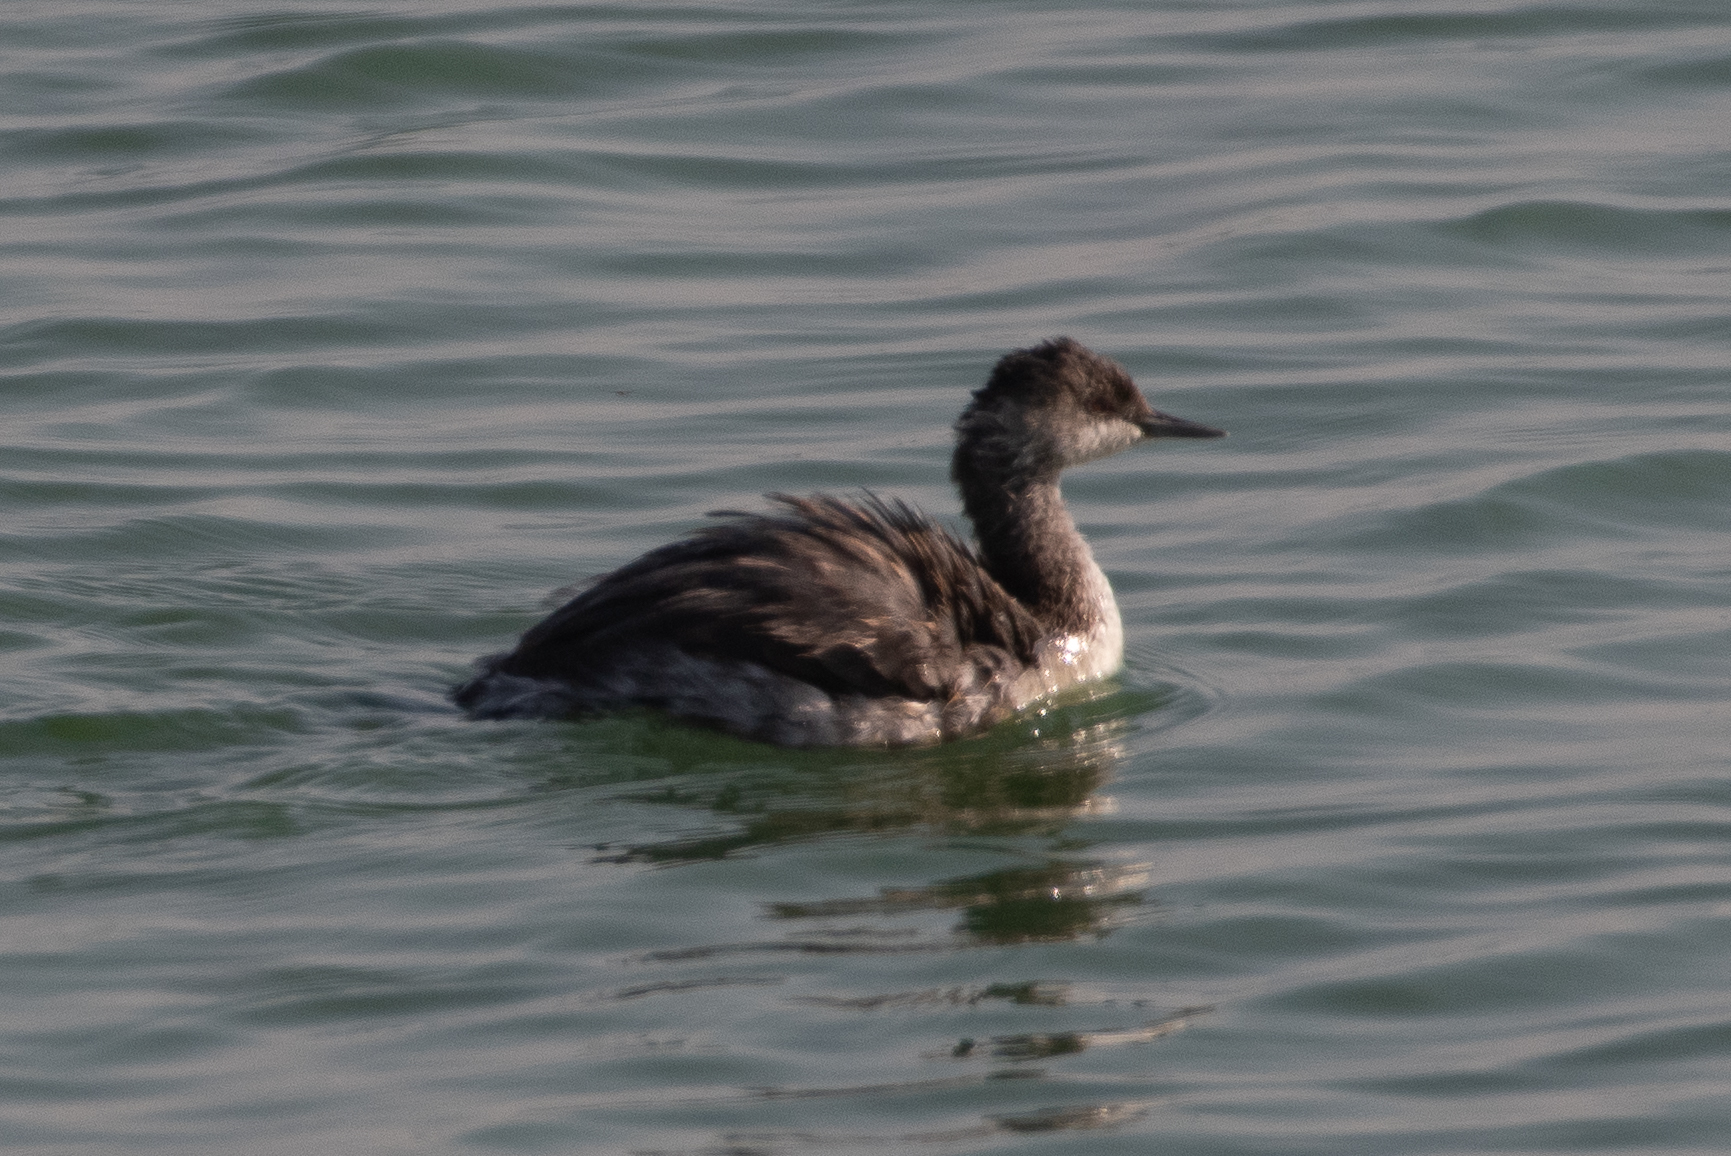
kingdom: Animalia
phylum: Chordata
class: Aves
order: Podicipediformes
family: Podicipedidae
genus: Podiceps
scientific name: Podiceps nigricollis
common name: Black-necked grebe
